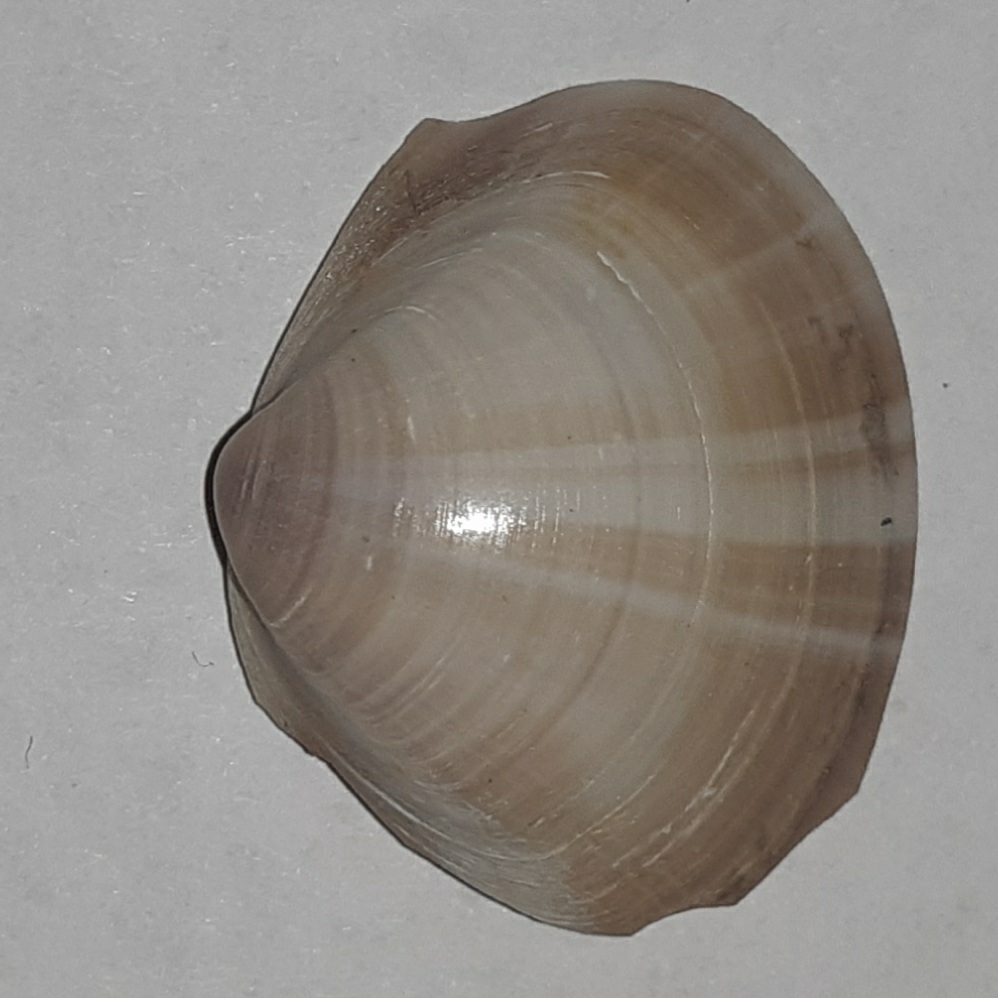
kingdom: Animalia
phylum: Mollusca
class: Bivalvia
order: Venerida
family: Mactridae
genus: Mactra
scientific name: Mactra stultorum
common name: Rayed trough shell
